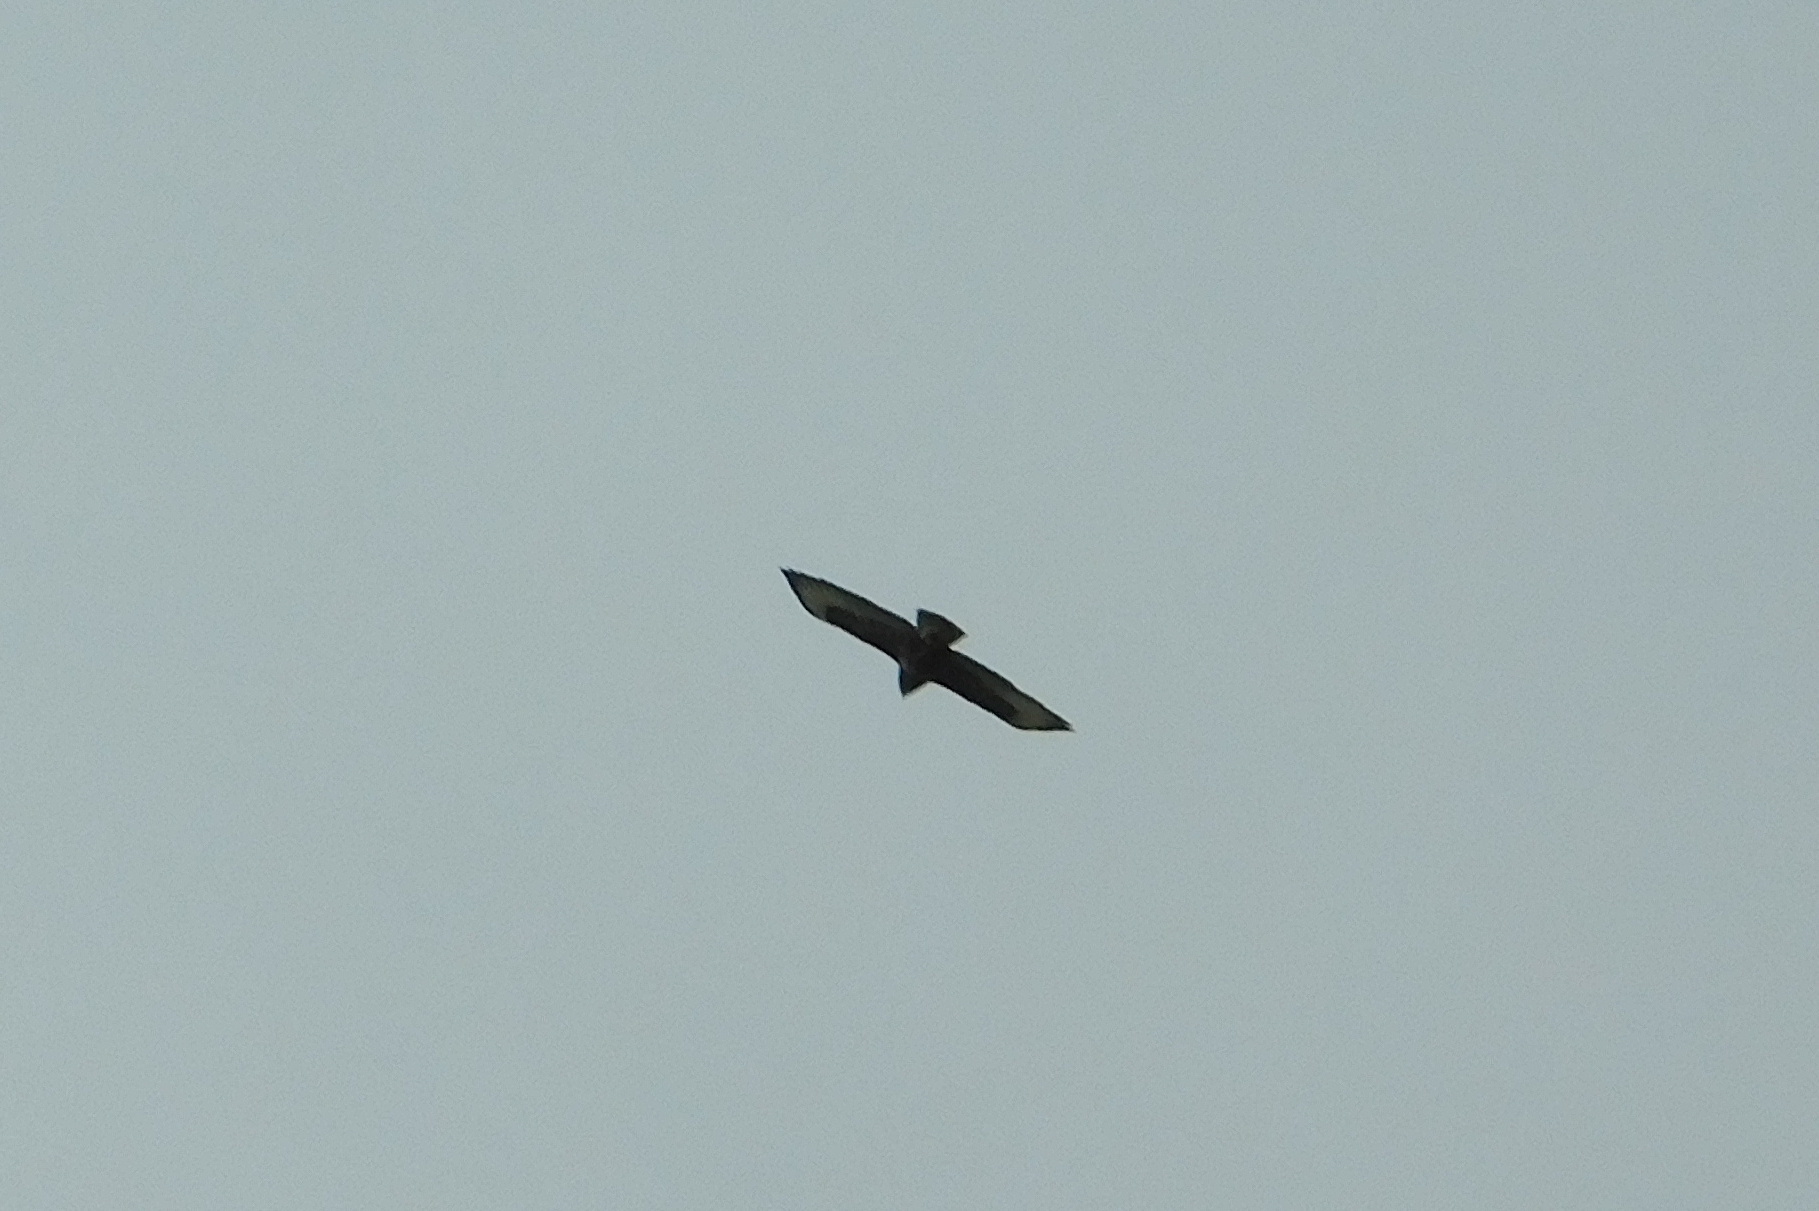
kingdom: Animalia
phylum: Chordata
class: Aves
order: Accipitriformes
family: Accipitridae
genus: Buteo
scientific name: Buteo buteo
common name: Common buzzard
